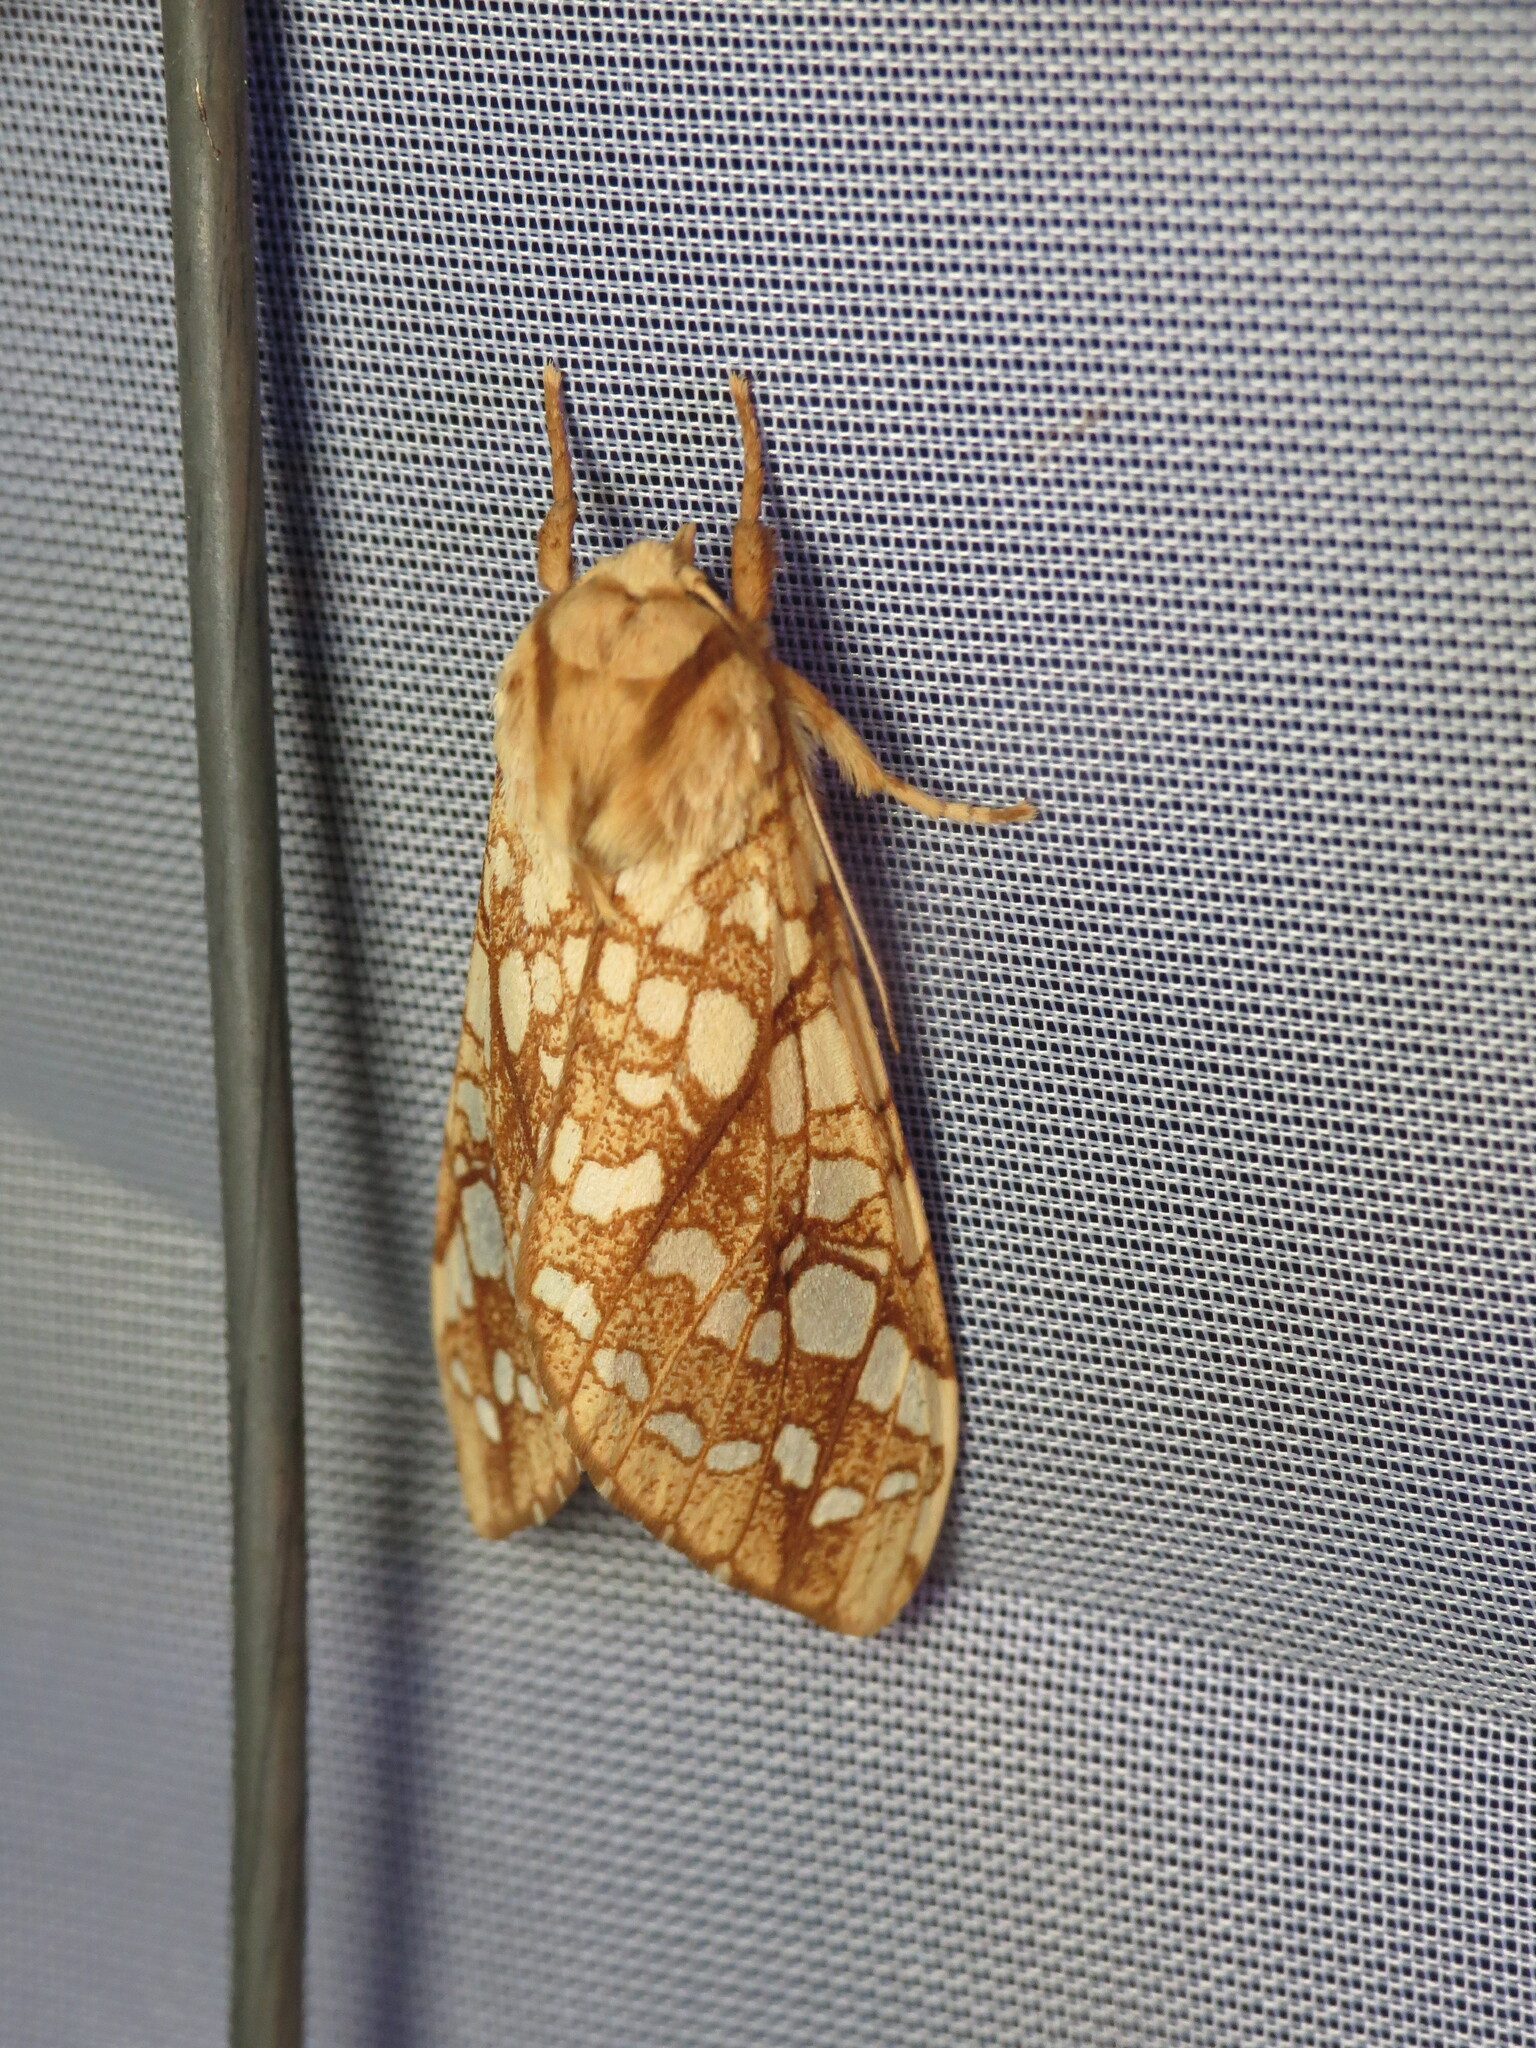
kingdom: Animalia
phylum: Arthropoda
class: Insecta
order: Lepidoptera
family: Erebidae
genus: Lophocampa
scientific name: Lophocampa caryae
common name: Hickory tussock moth
